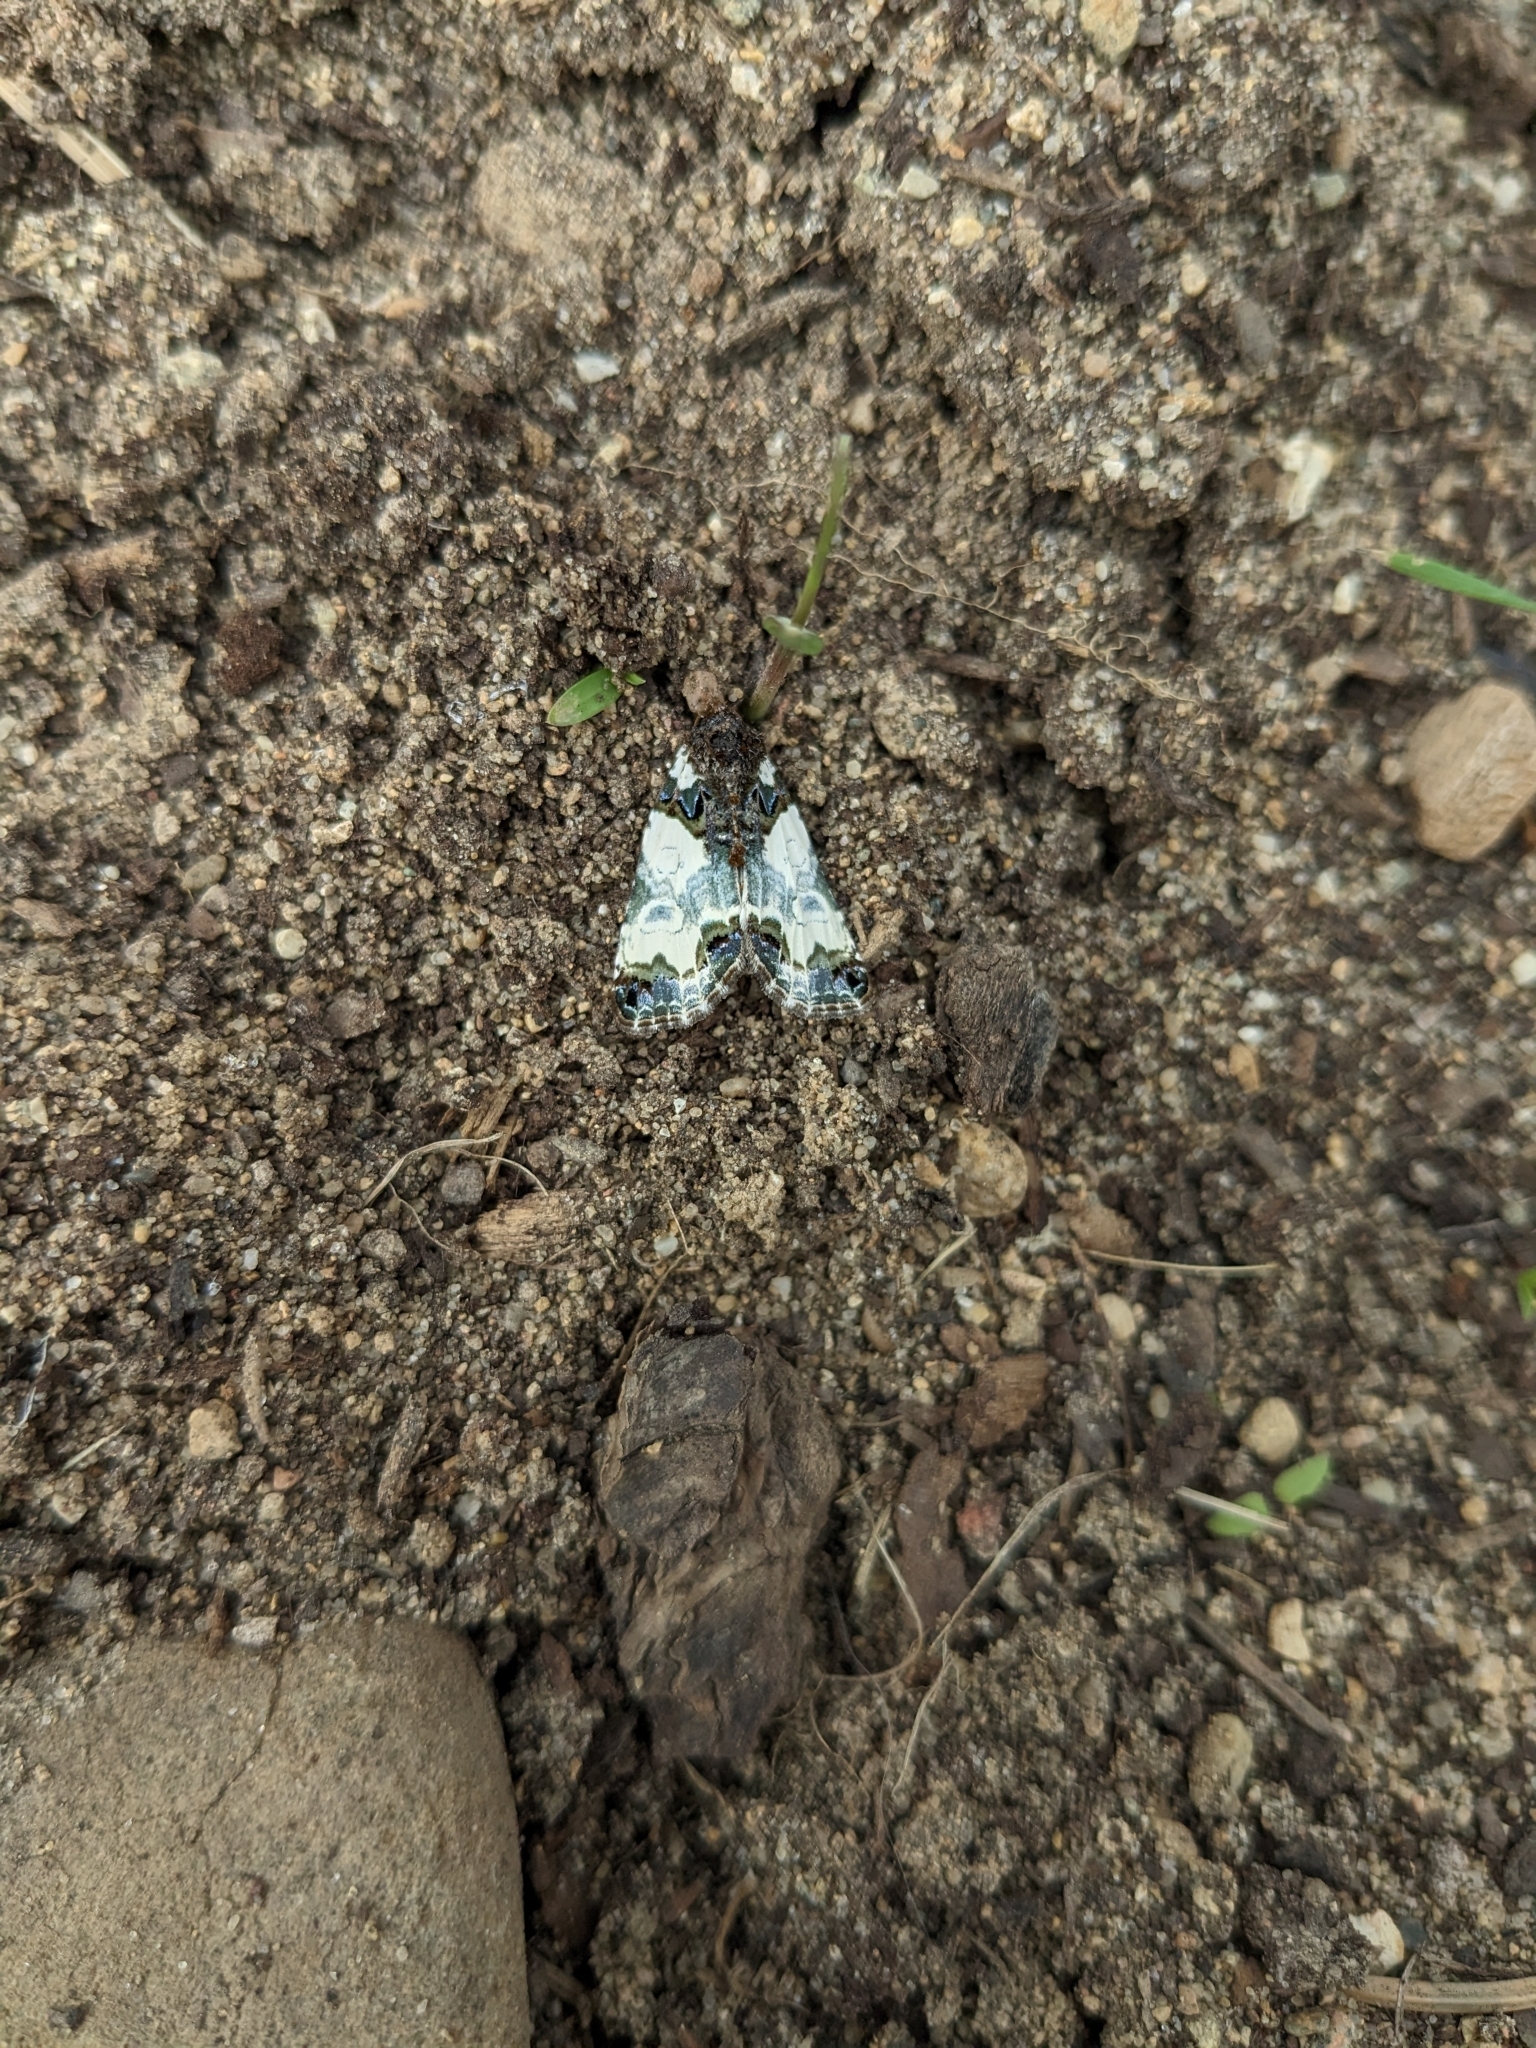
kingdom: Animalia
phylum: Arthropoda
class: Insecta
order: Lepidoptera
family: Noctuidae
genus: Cerma
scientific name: Cerma cerintha
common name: Tufted bird-dropping moth
